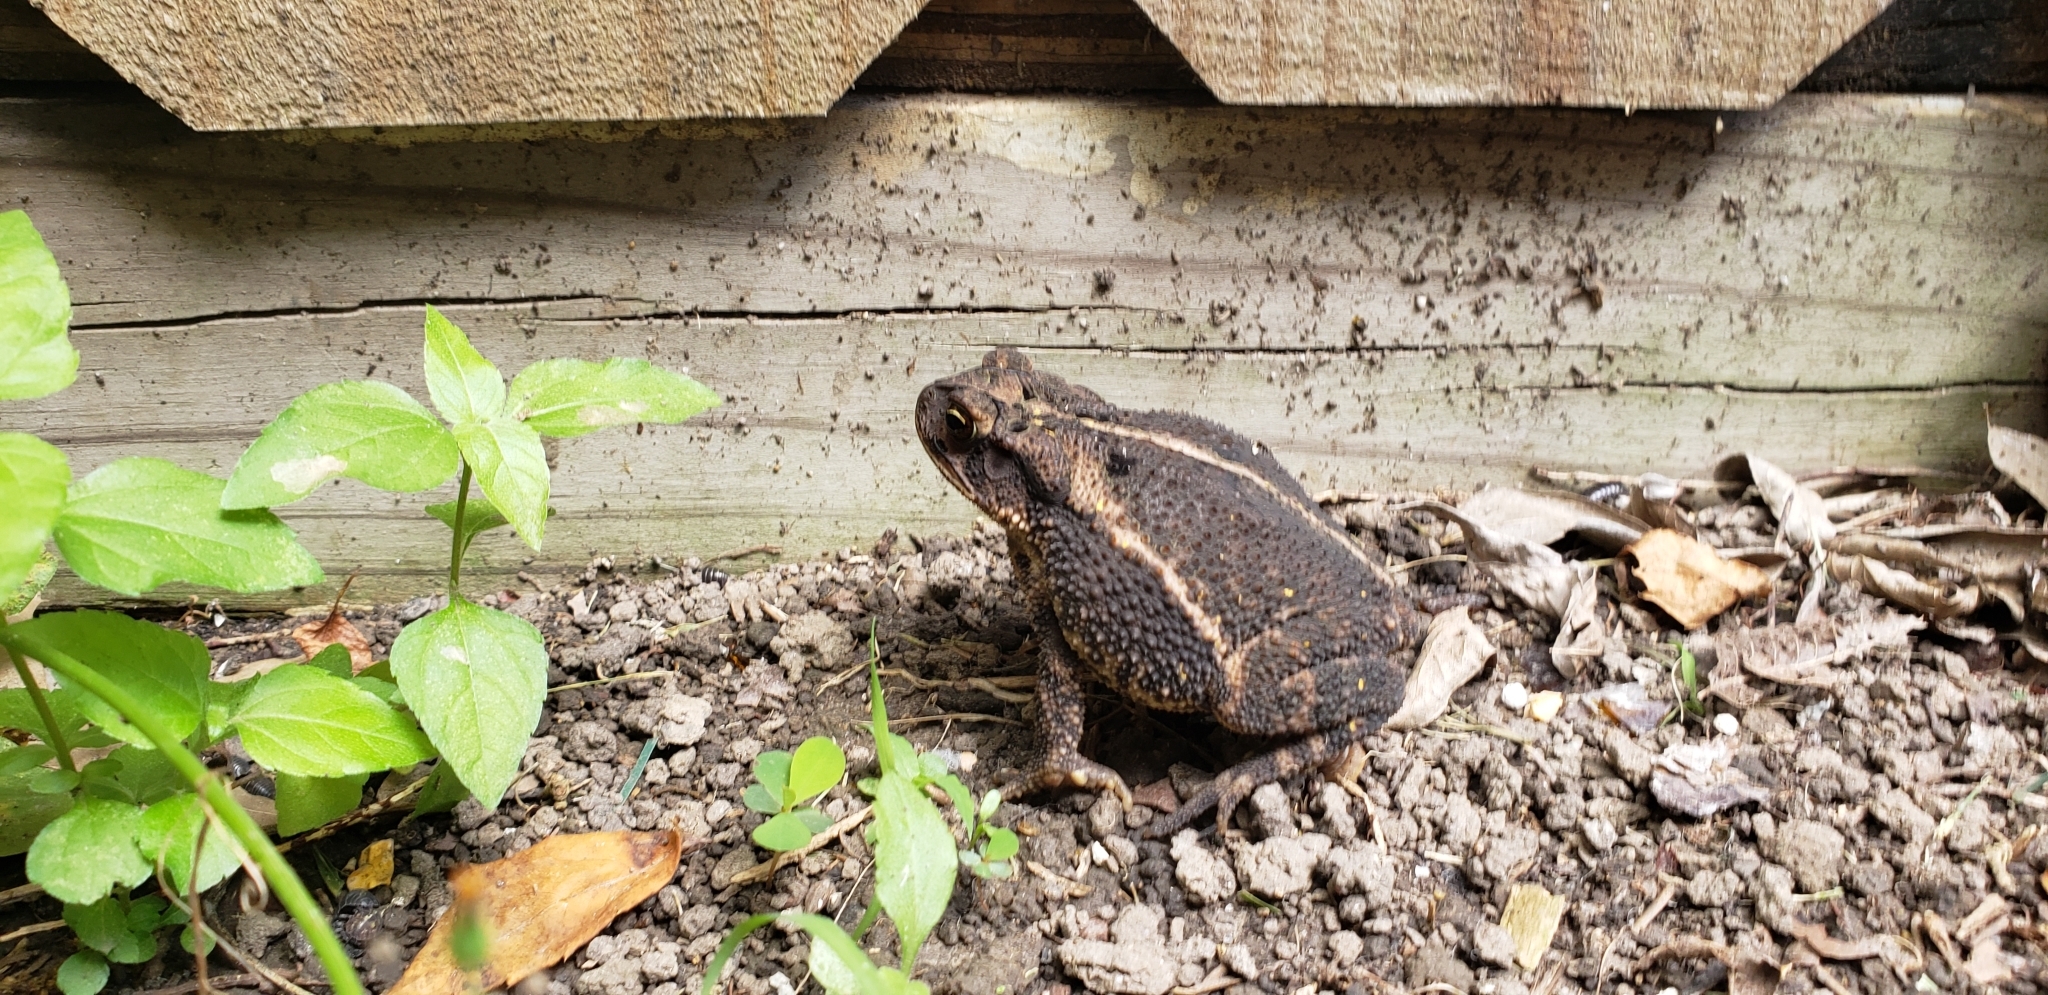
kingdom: Animalia
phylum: Chordata
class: Amphibia
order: Anura
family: Bufonidae
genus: Incilius
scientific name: Incilius nebulifer
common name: Gulf coast toad
